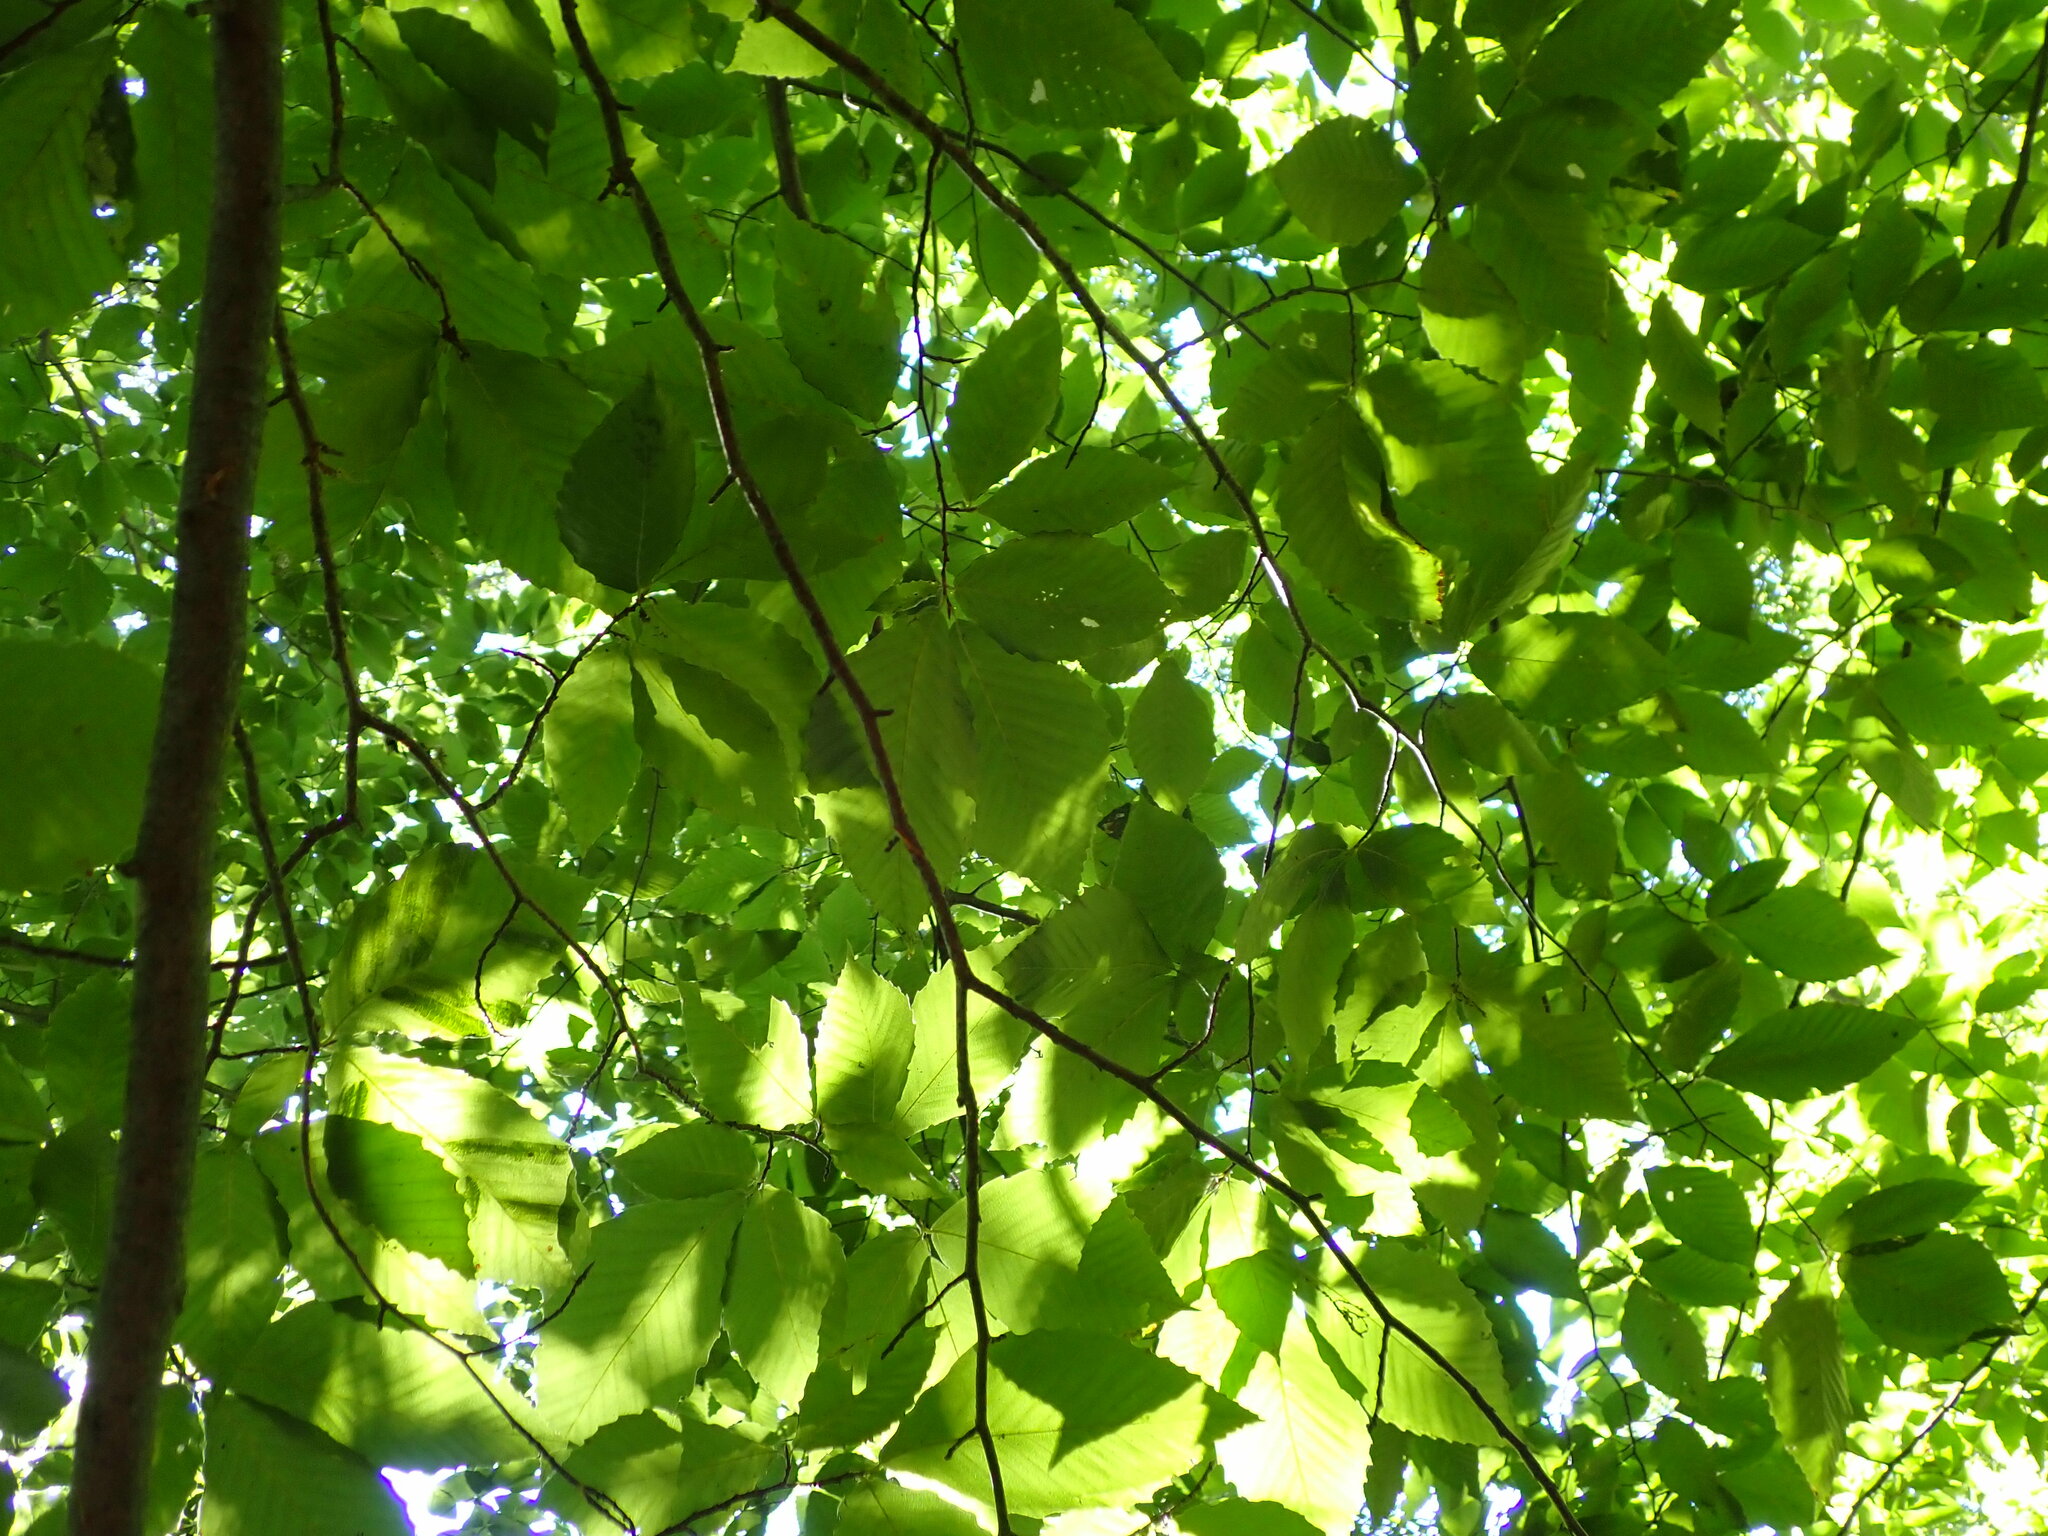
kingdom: Animalia
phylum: Nematoda
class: Chromadorea
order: Rhabditida
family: Anguinidae
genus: Litylenchus
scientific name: Litylenchus crenatae
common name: Beech leaf disease
